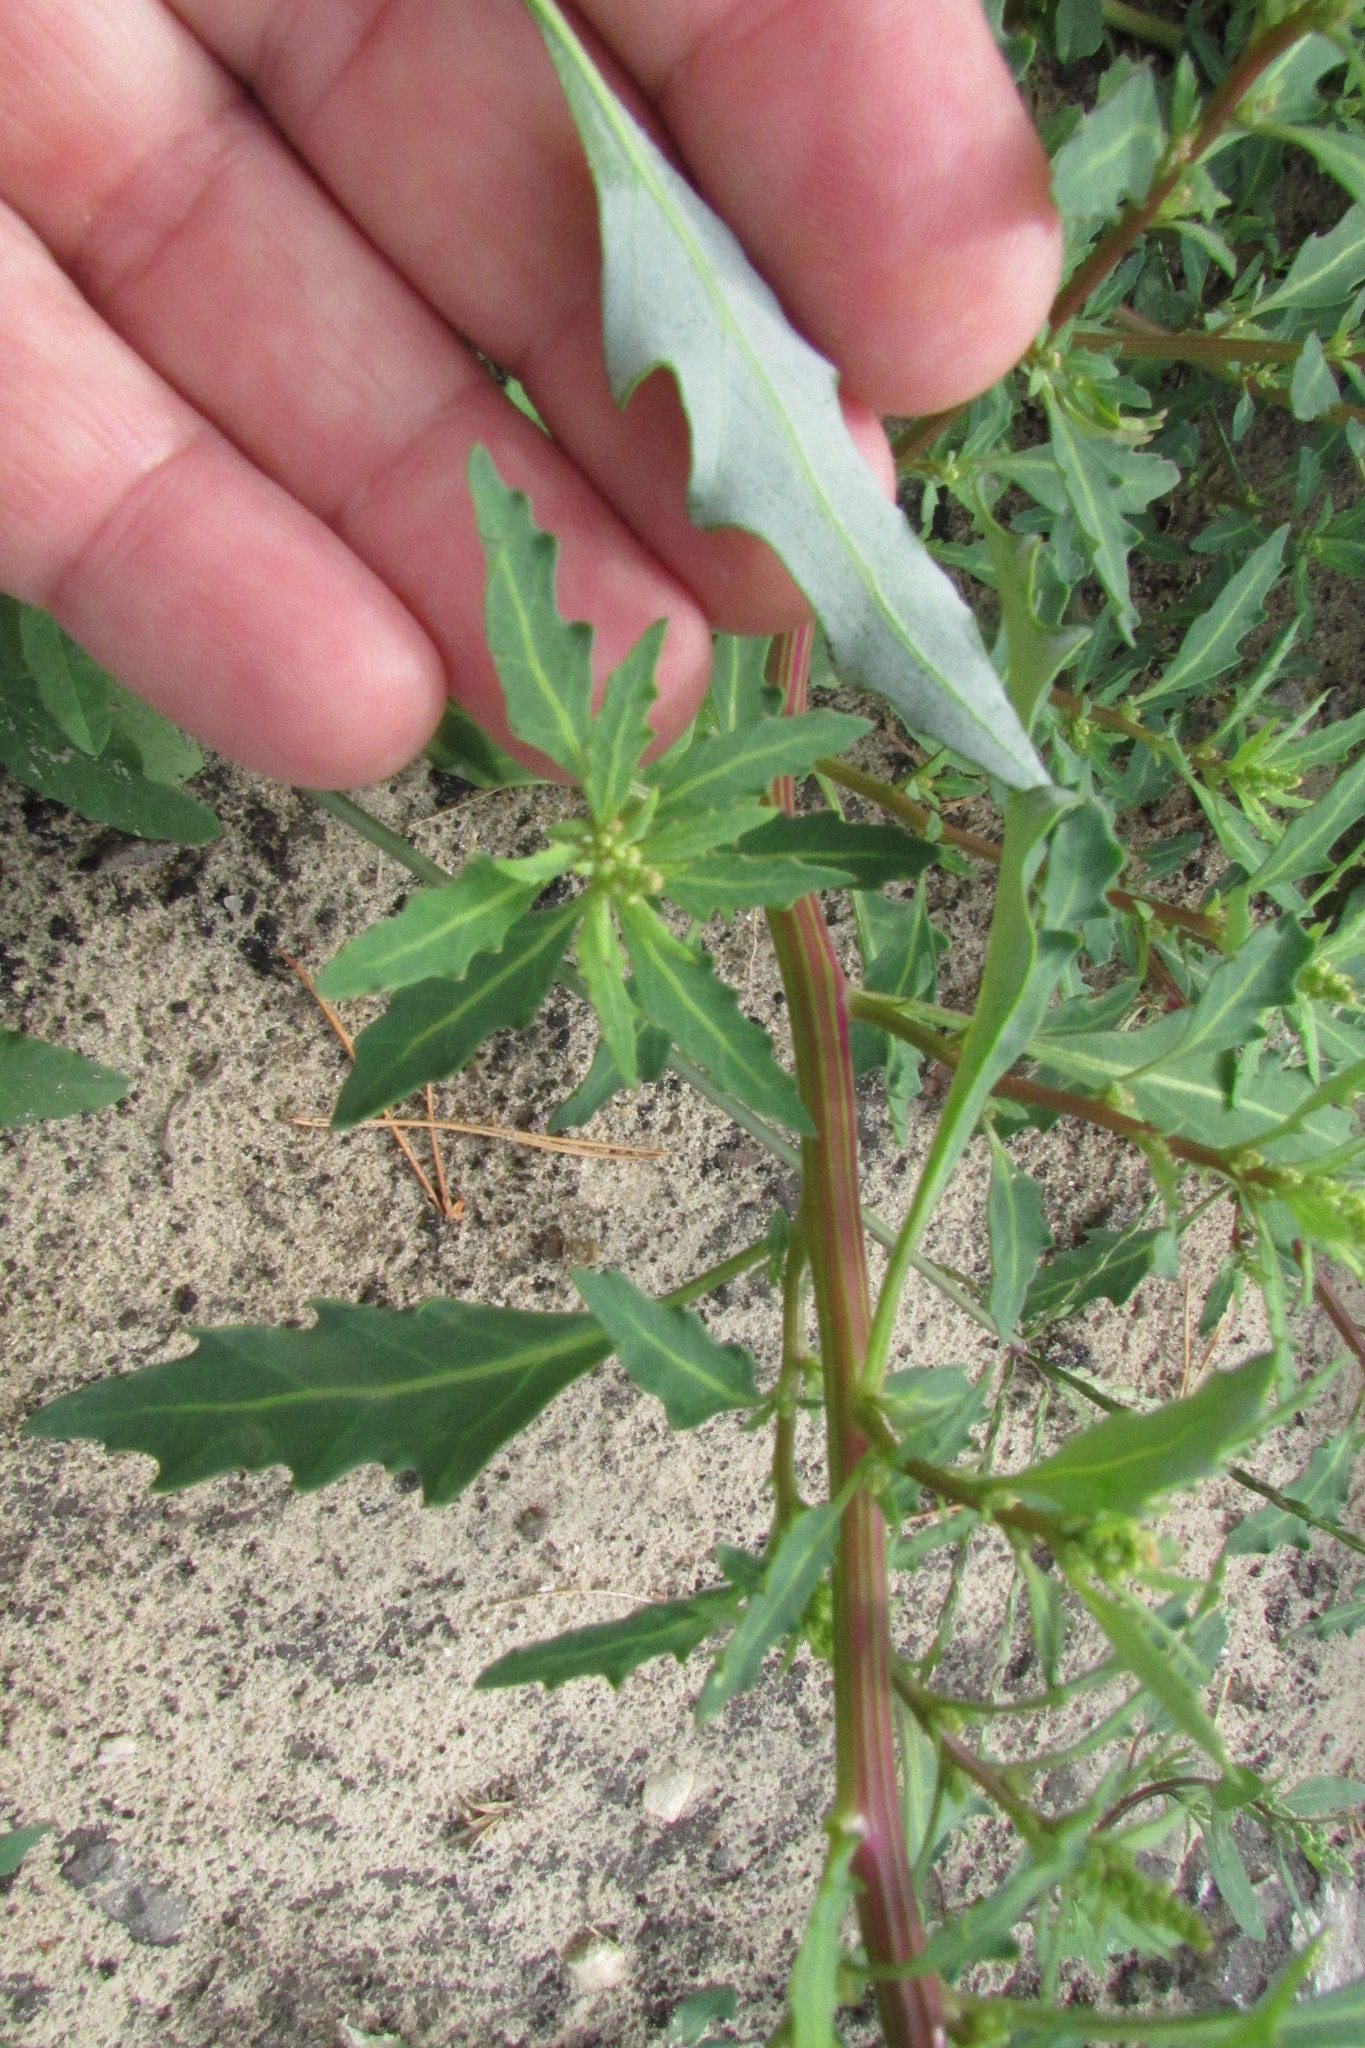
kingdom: Plantae
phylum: Tracheophyta
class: Magnoliopsida
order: Caryophyllales
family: Amaranthaceae
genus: Oxybasis
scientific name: Oxybasis glauca
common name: Glaucous goosefoot
